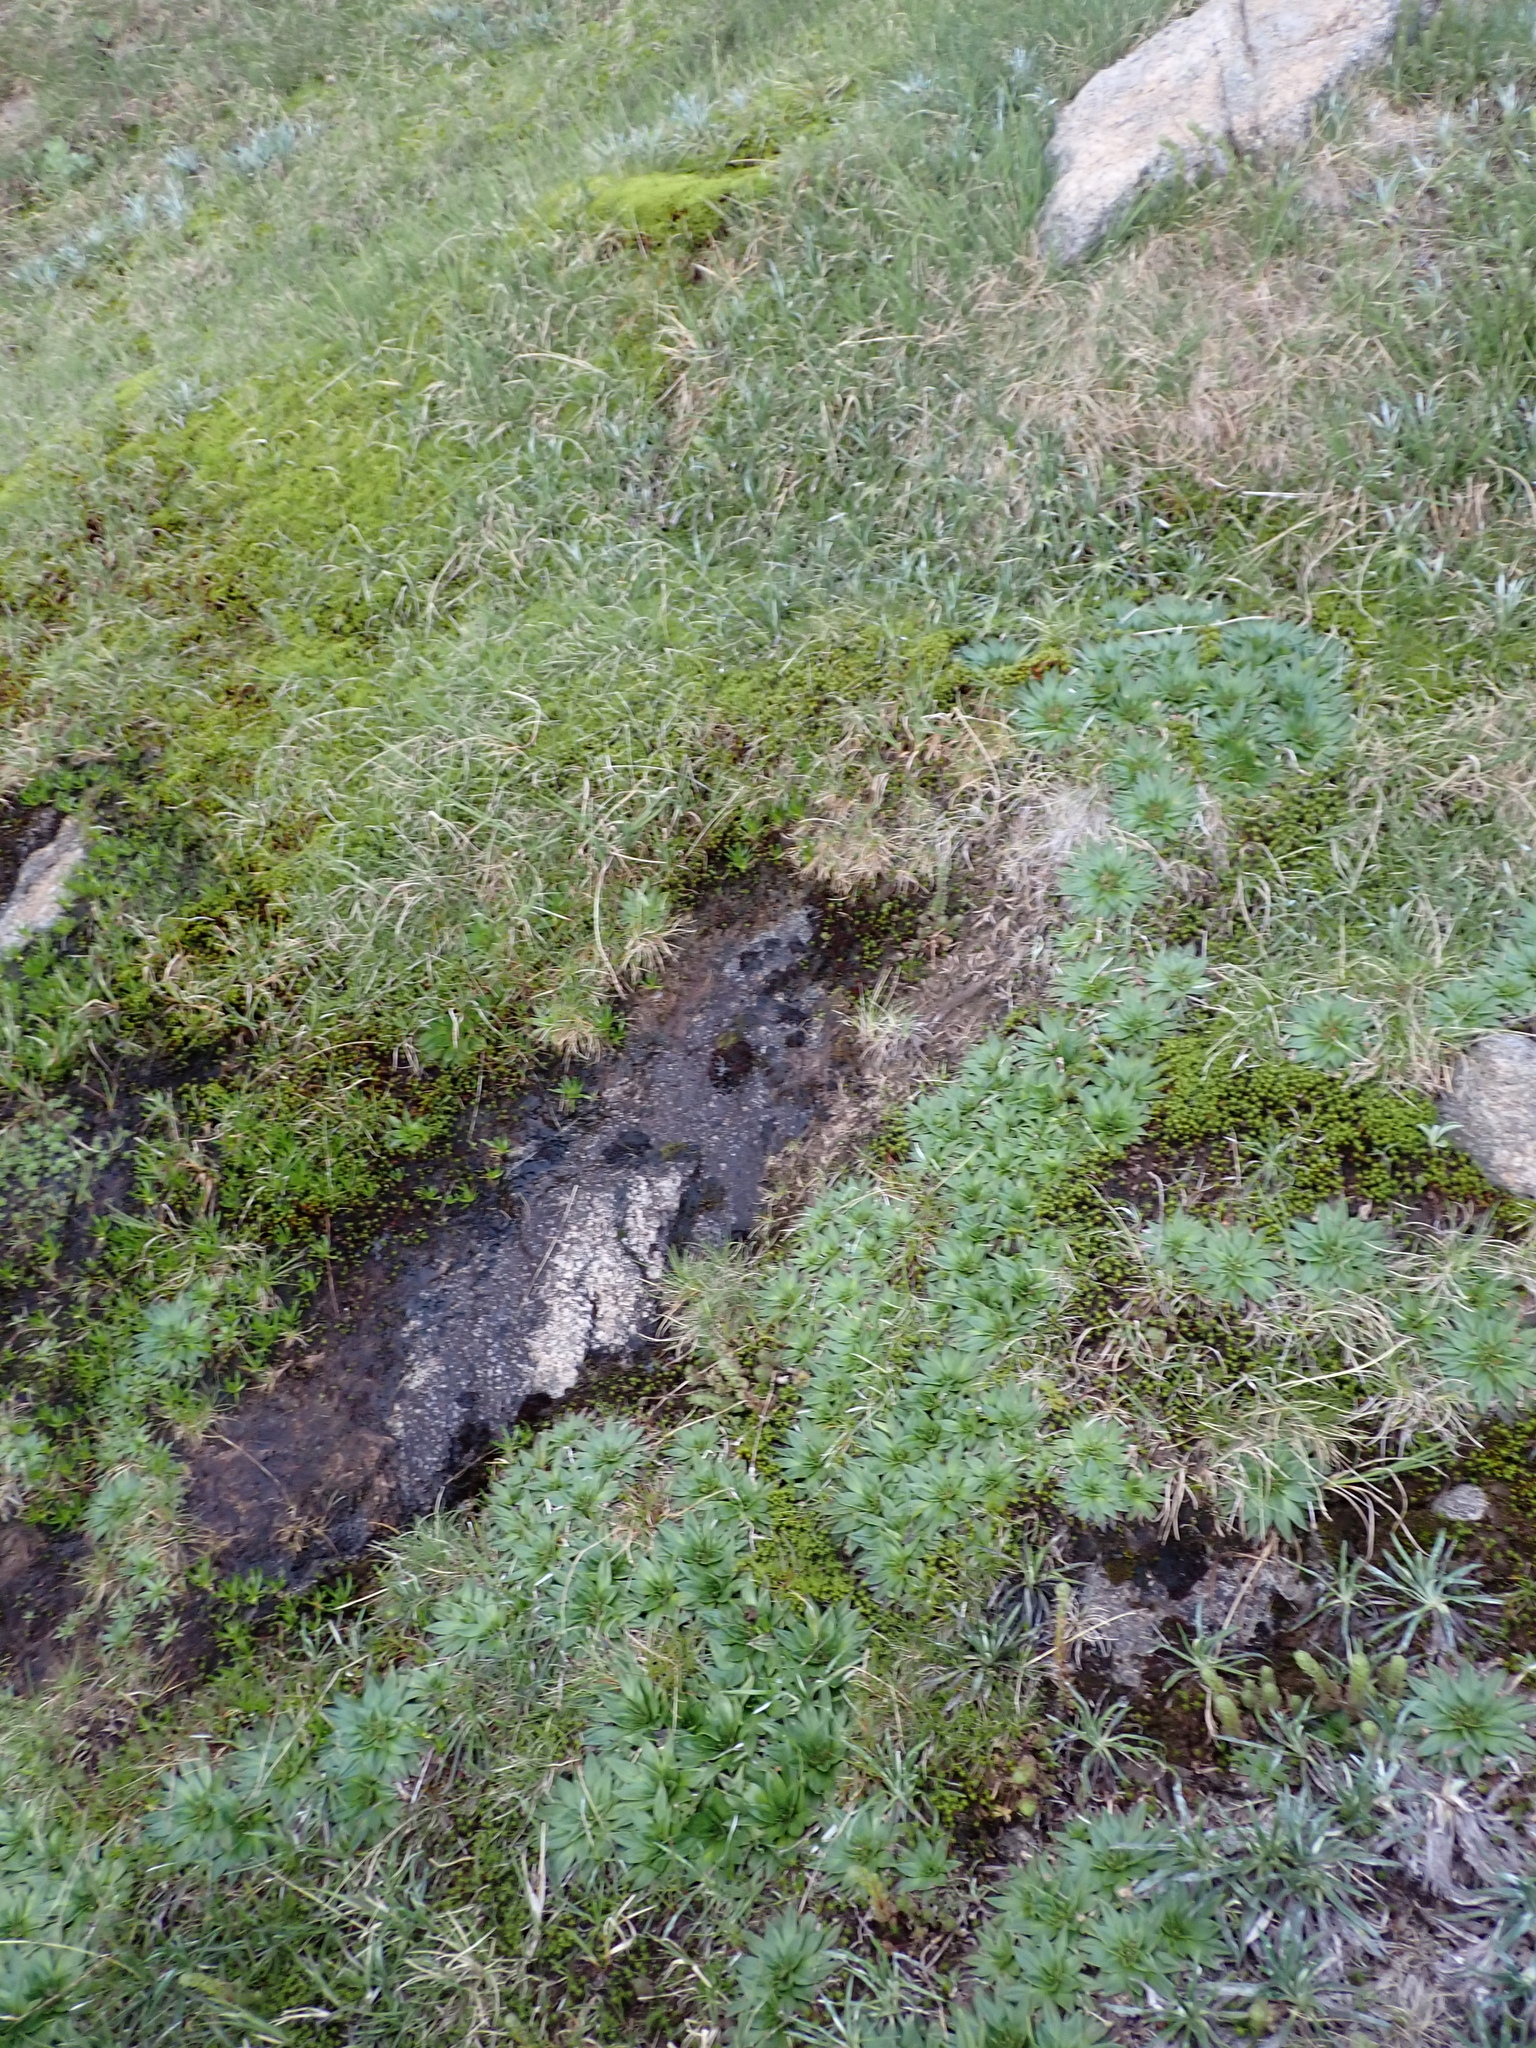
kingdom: Plantae
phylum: Tracheophyta
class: Magnoliopsida
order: Lamiales
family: Plantaginaceae
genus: Plantago
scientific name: Plantago muelleri
